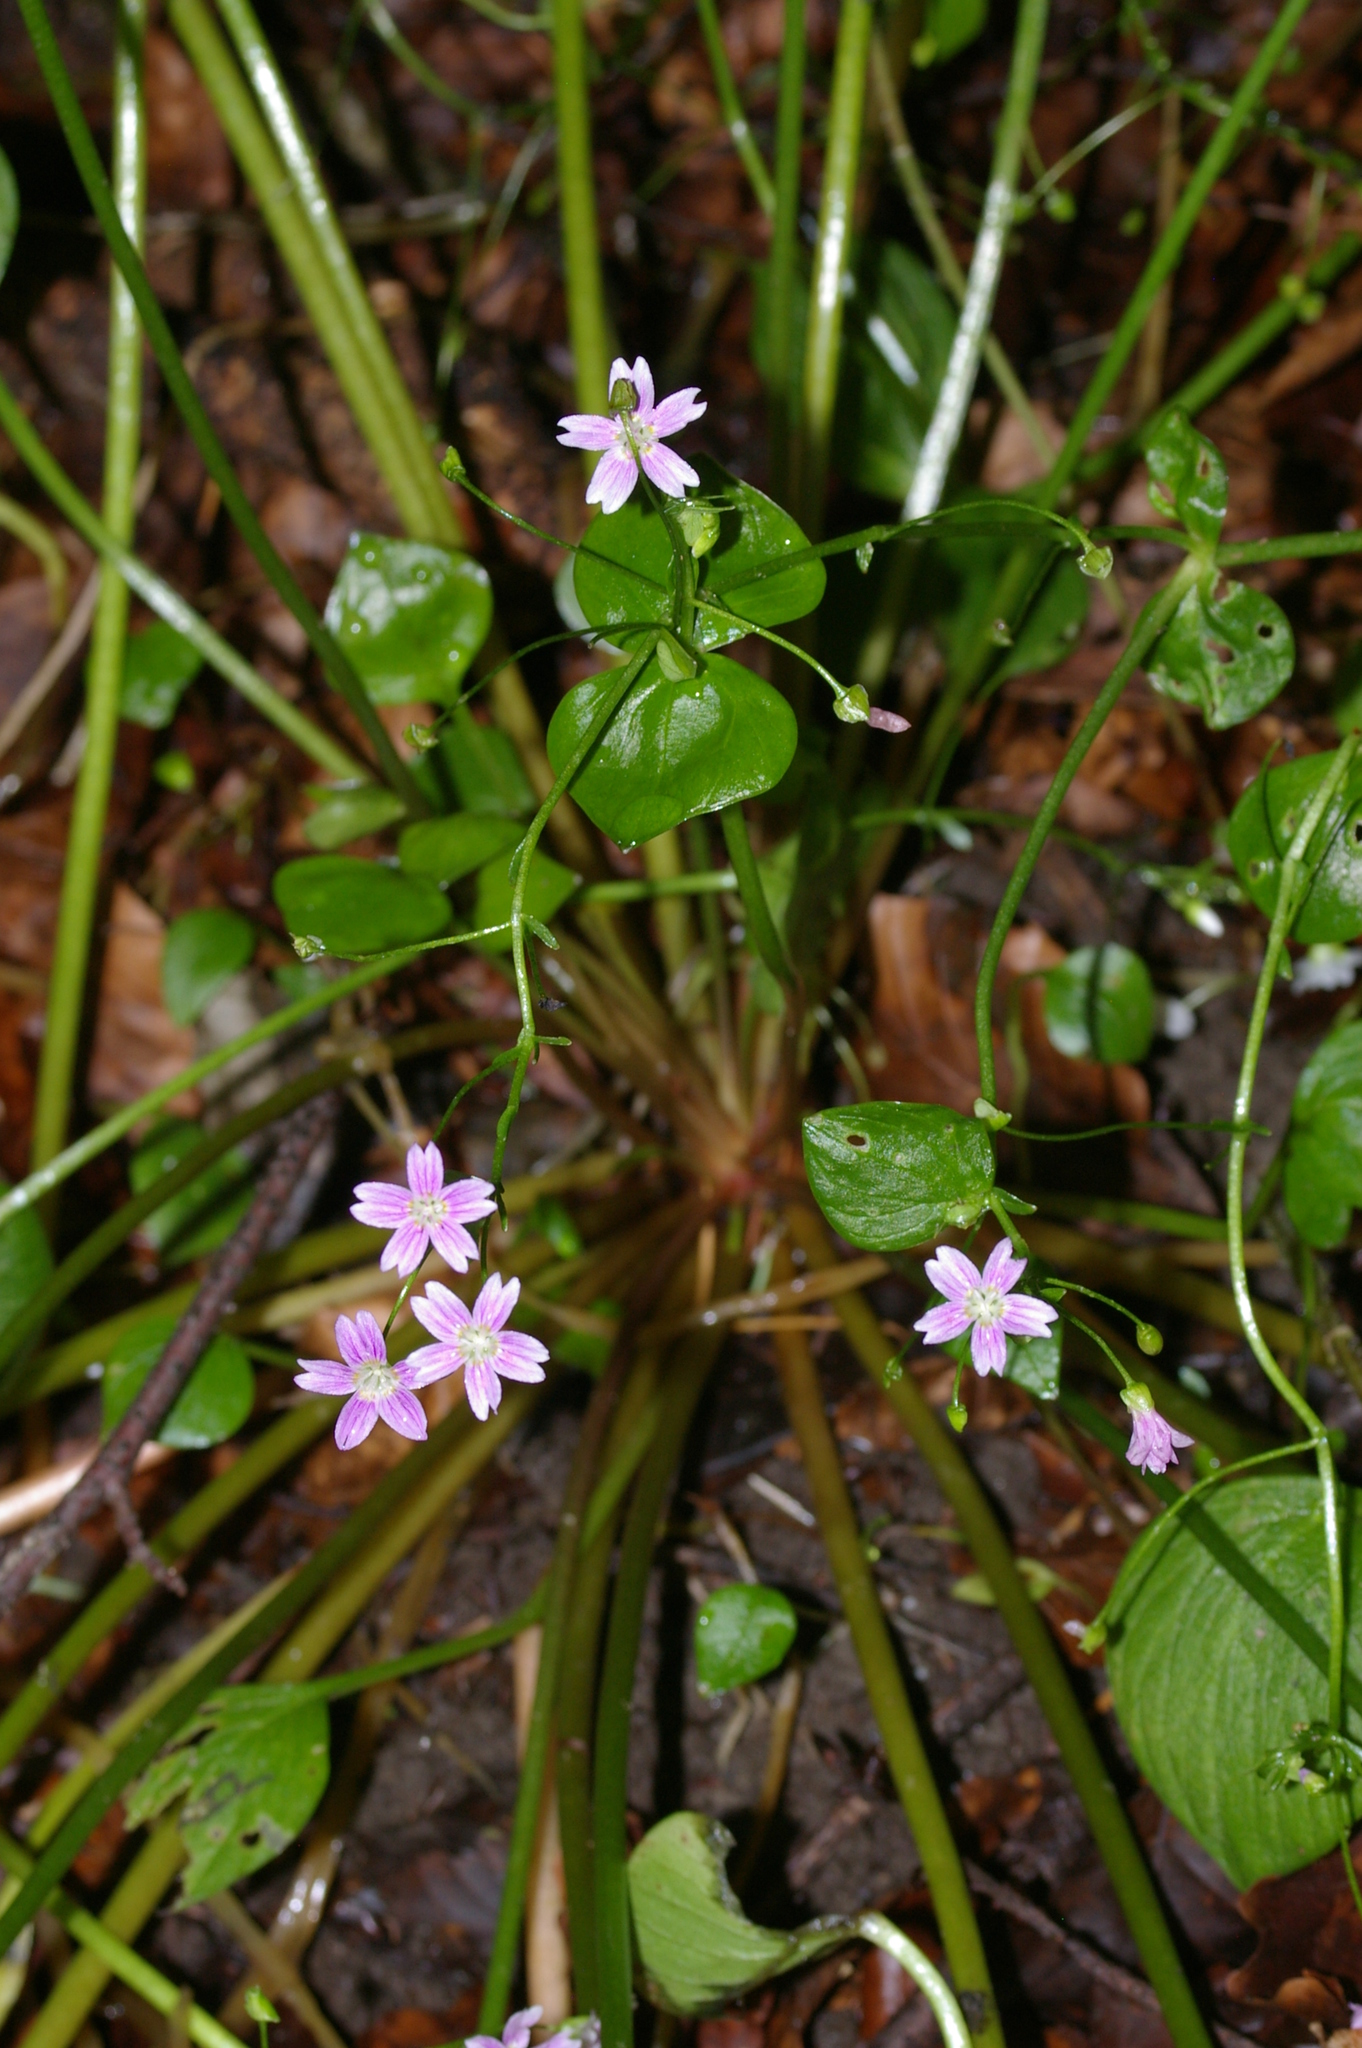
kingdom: Plantae
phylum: Tracheophyta
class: Magnoliopsida
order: Caryophyllales
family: Montiaceae
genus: Claytonia
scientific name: Claytonia sibirica
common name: Pink purslane
